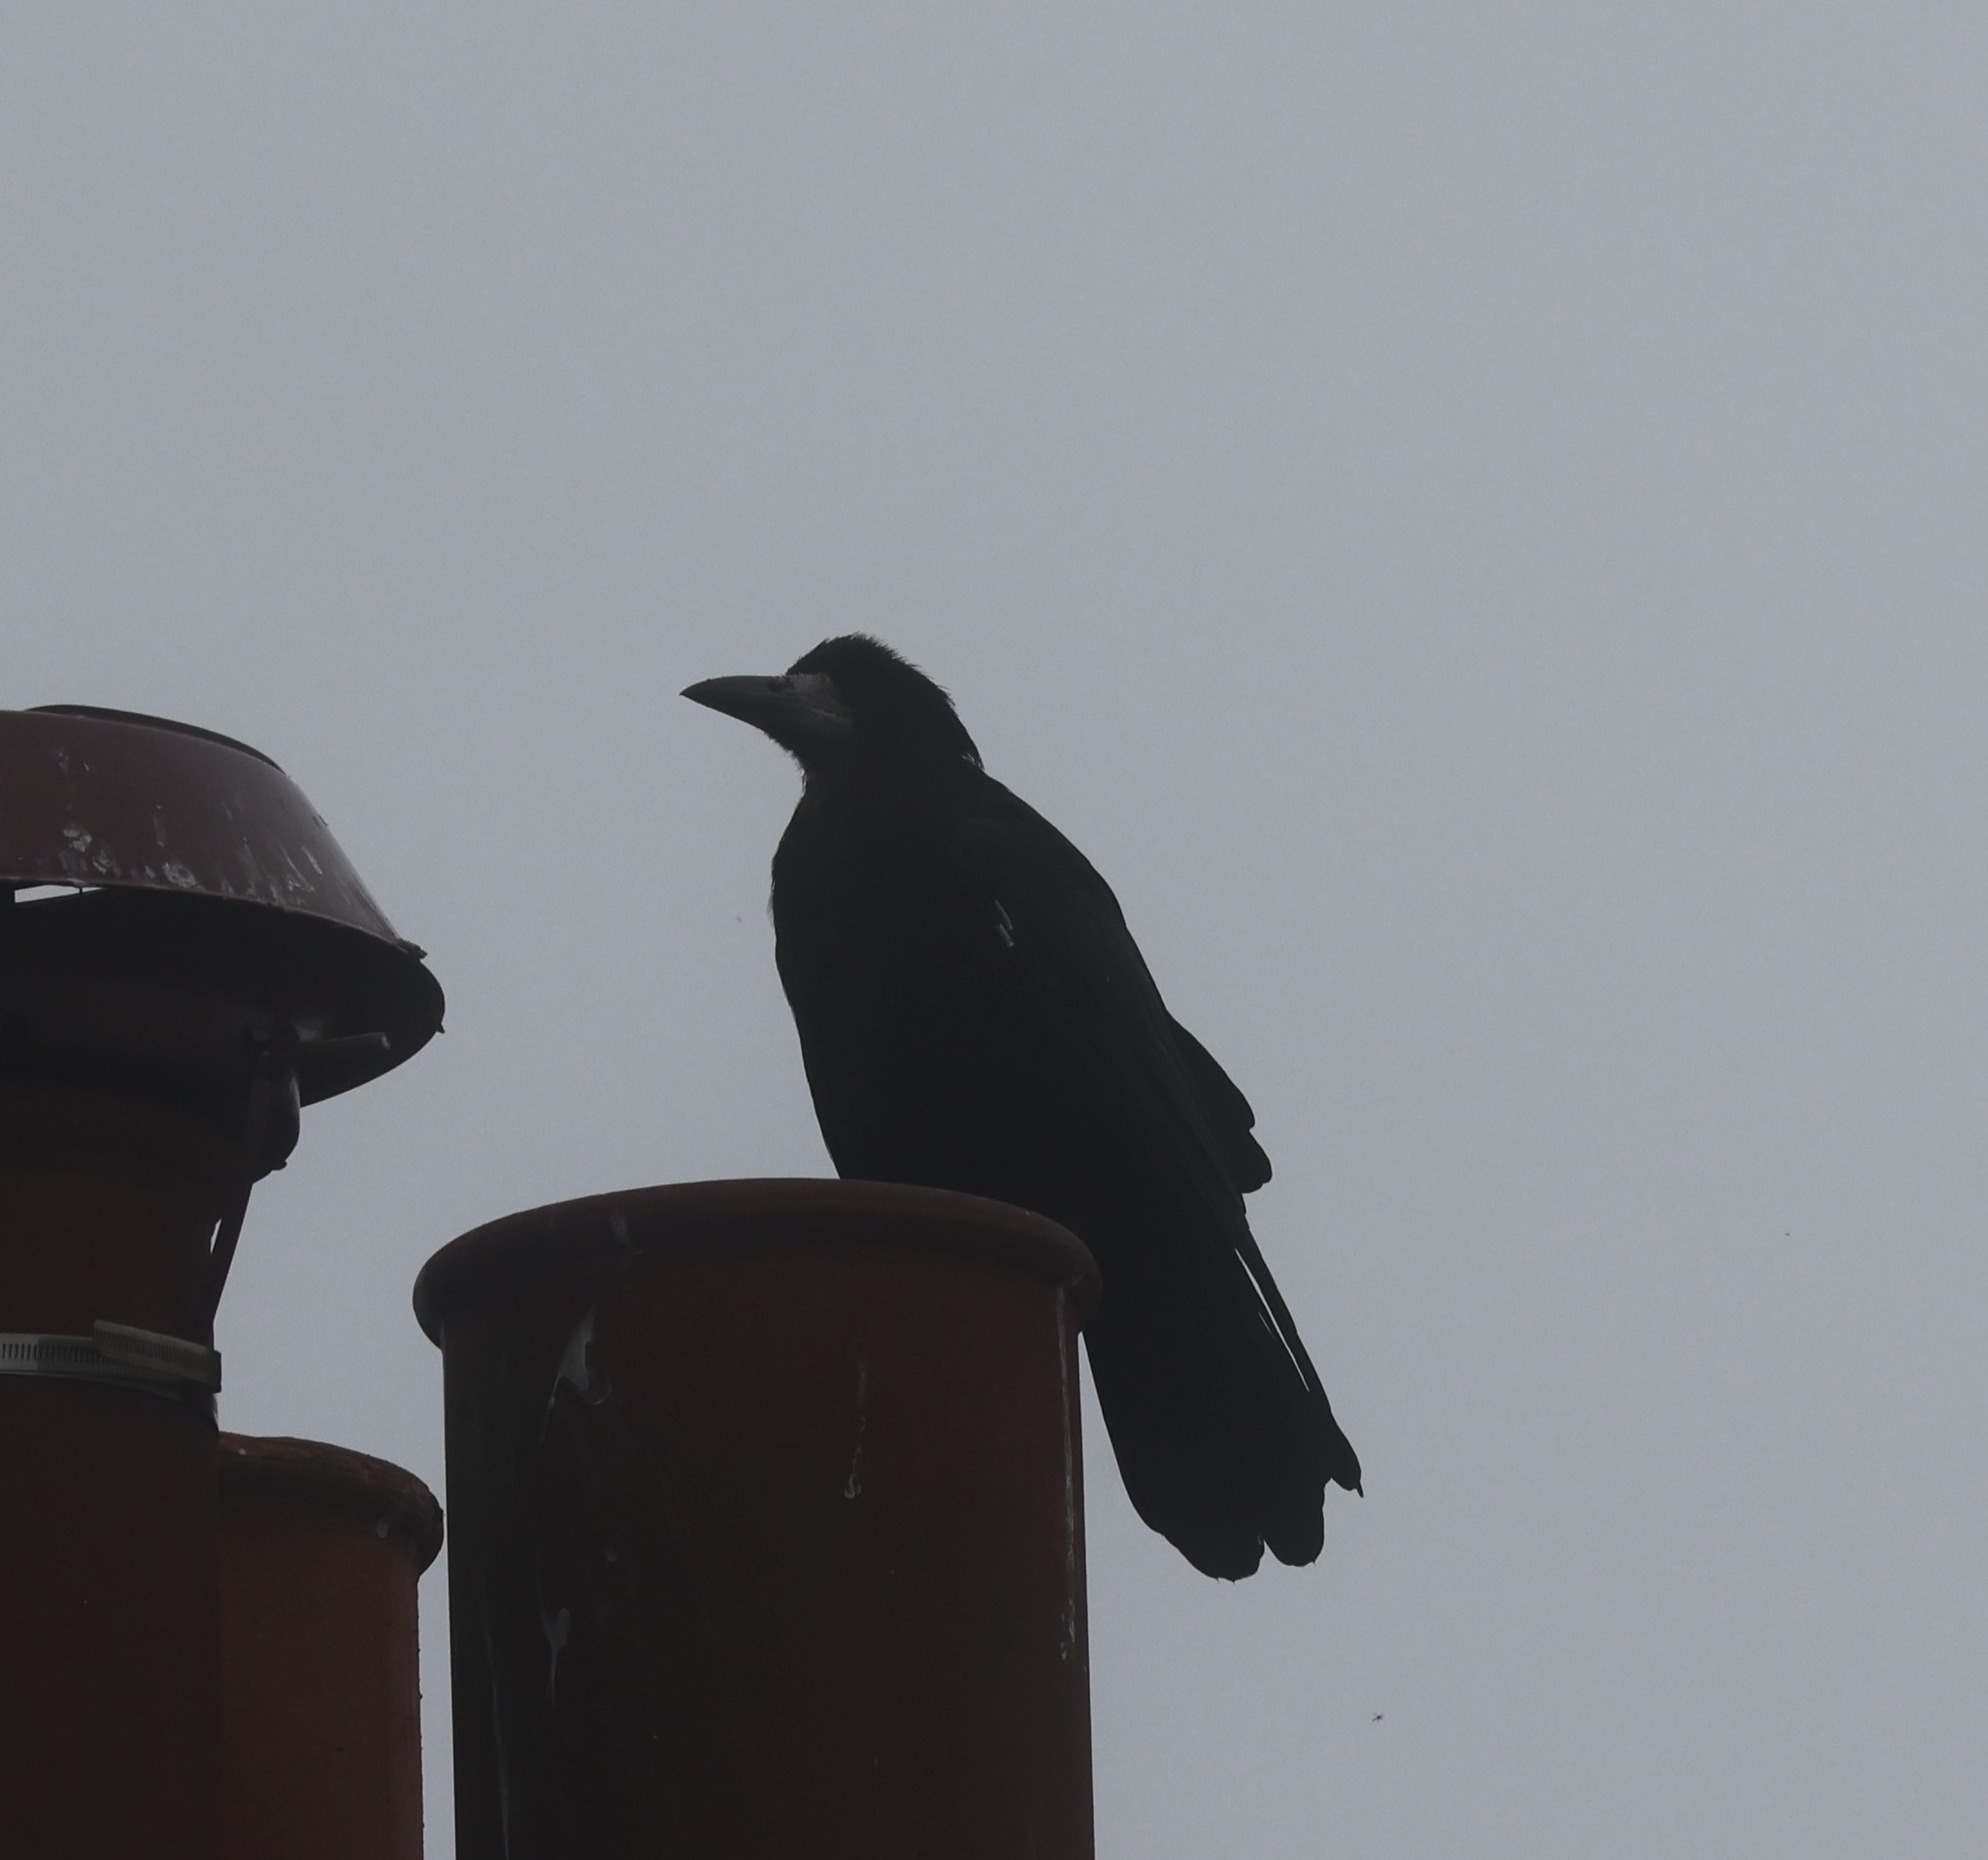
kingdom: Animalia
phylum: Chordata
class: Aves
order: Passeriformes
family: Corvidae
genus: Corvus
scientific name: Corvus frugilegus
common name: Rook
